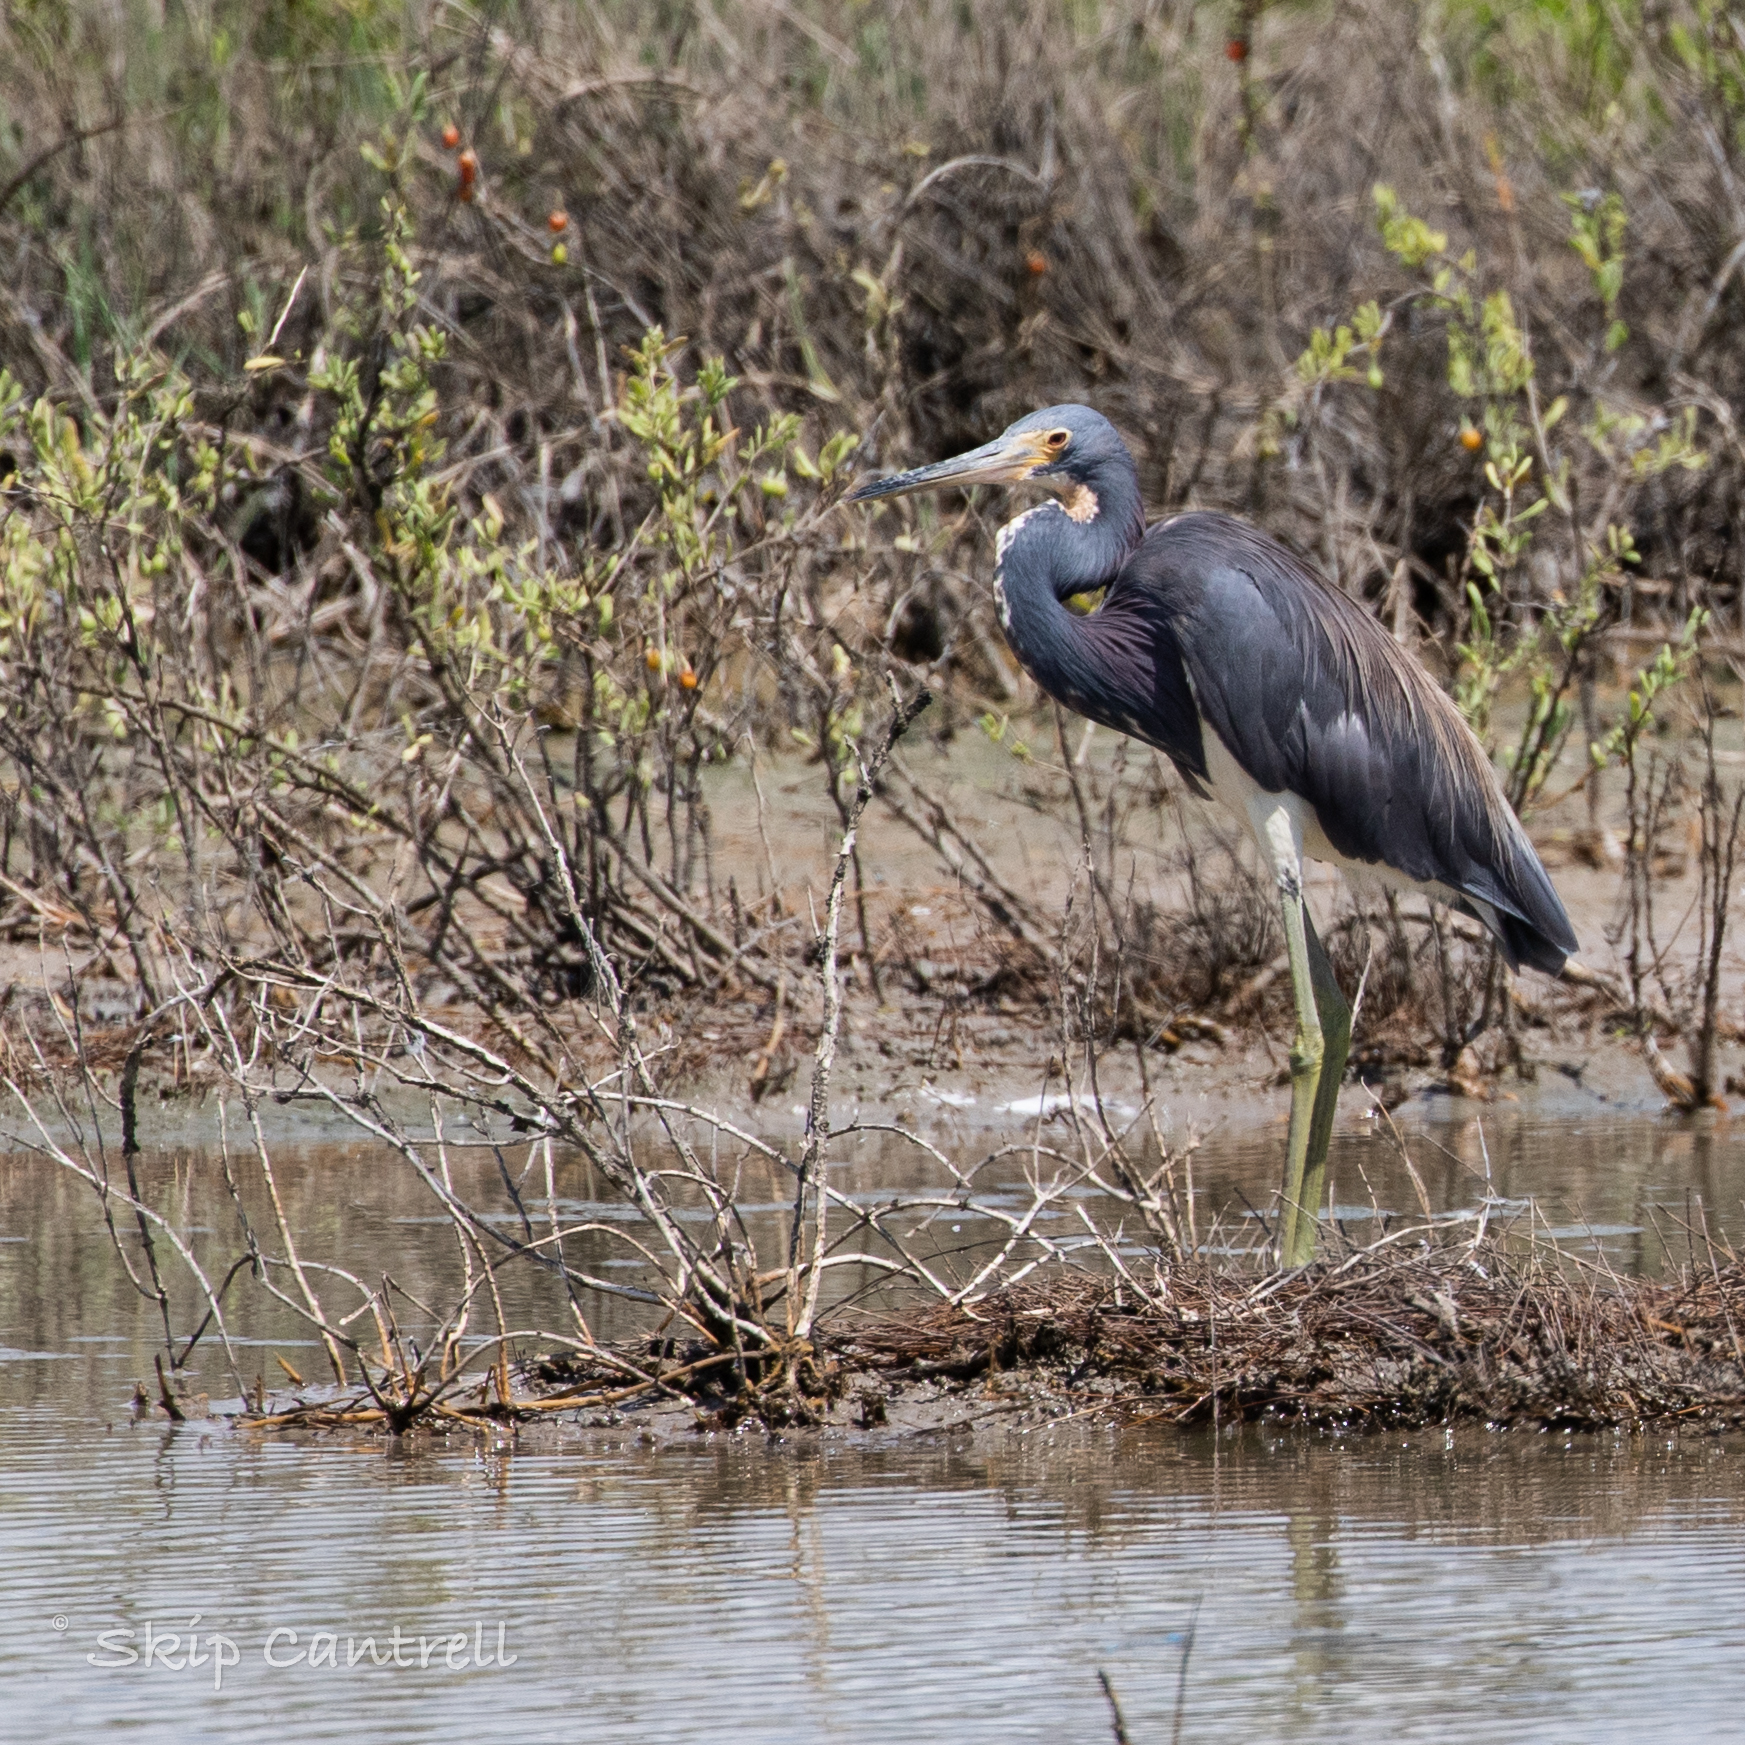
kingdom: Animalia
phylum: Chordata
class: Aves
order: Pelecaniformes
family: Ardeidae
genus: Egretta
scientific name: Egretta tricolor
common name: Tricolored heron
